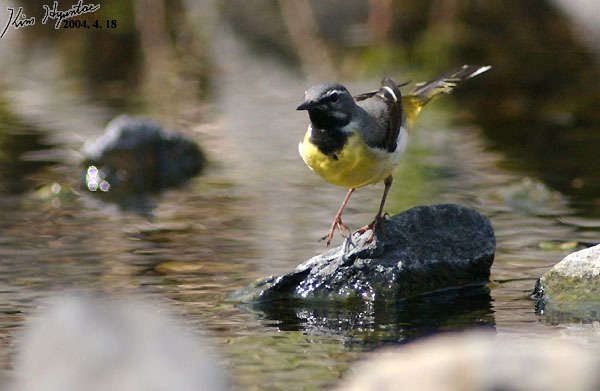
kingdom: Animalia
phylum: Chordata
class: Aves
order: Passeriformes
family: Motacillidae
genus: Motacilla
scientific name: Motacilla cinerea
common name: Grey wagtail
